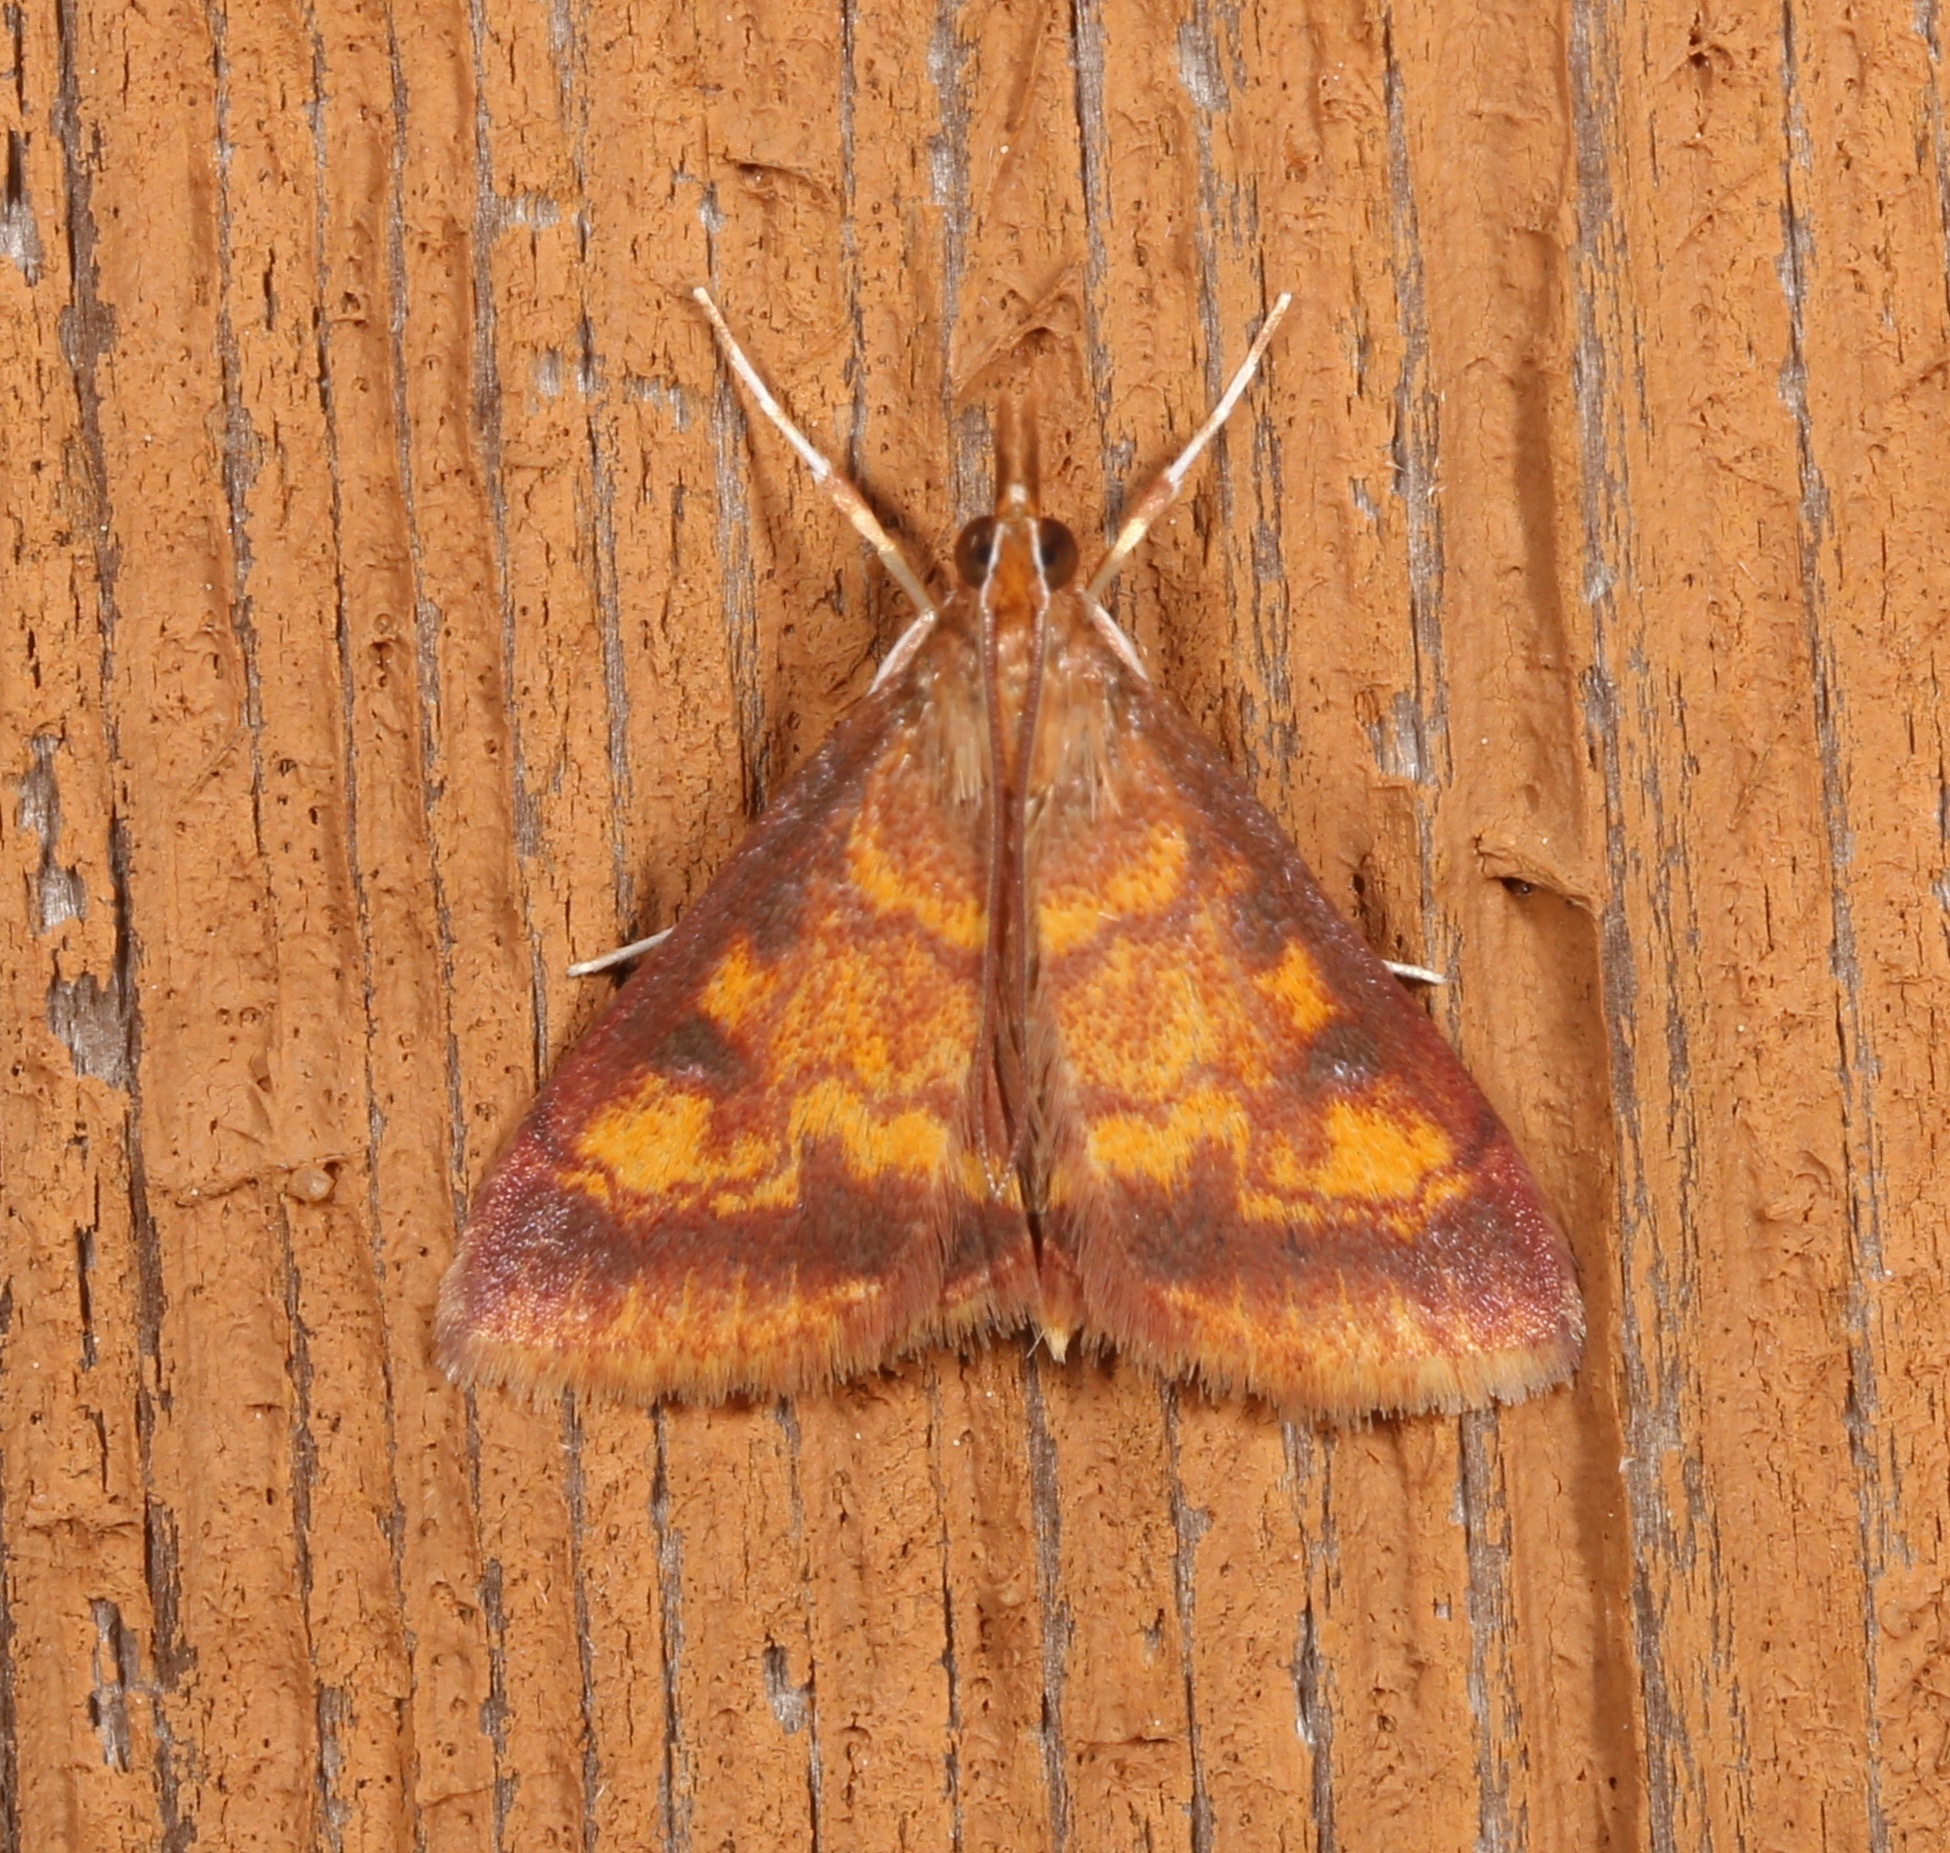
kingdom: Animalia
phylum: Arthropoda
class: Insecta
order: Lepidoptera
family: Crambidae
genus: Pyrausta
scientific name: Pyrausta acrionalis
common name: Mint-loving pyrausta moth
